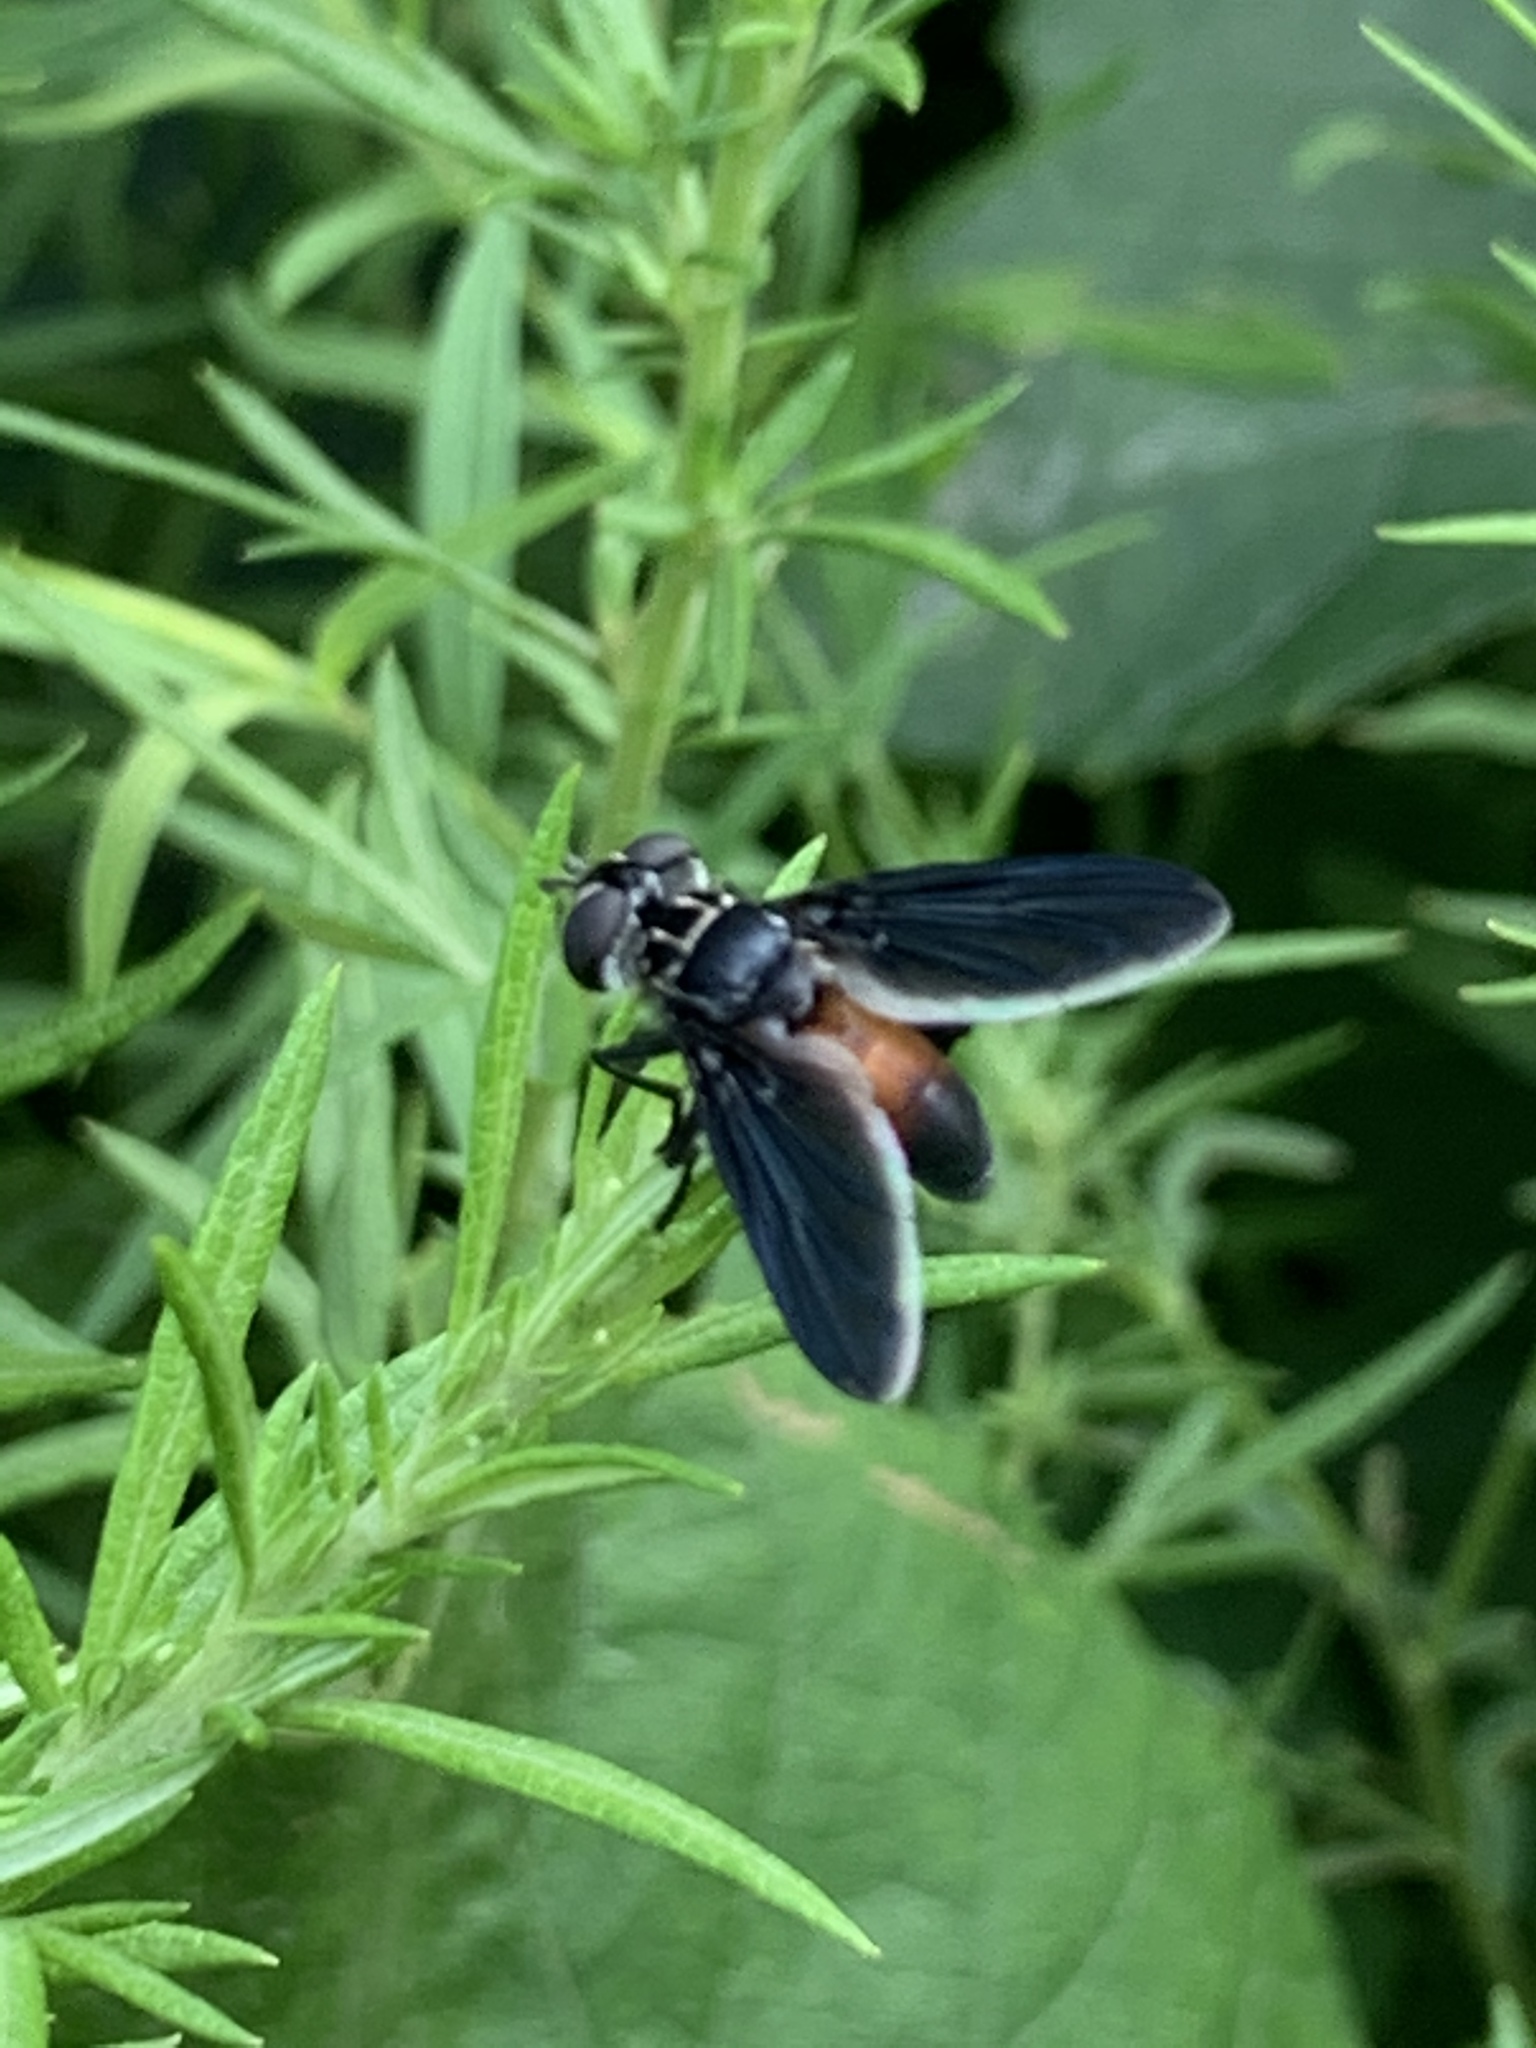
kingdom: Animalia
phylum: Arthropoda
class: Insecta
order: Diptera
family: Tachinidae
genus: Trichopoda
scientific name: Trichopoda pennipes
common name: Tachinid fly
